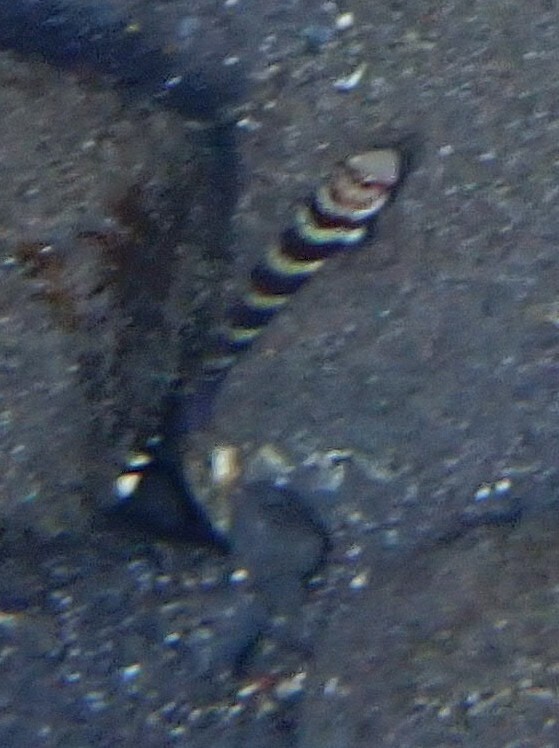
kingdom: Animalia
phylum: Chordata
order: Perciformes
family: Gobiidae
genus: Amblyeleotris
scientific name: Amblyeleotris wheeleri
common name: Gorgeous prawn-goby
